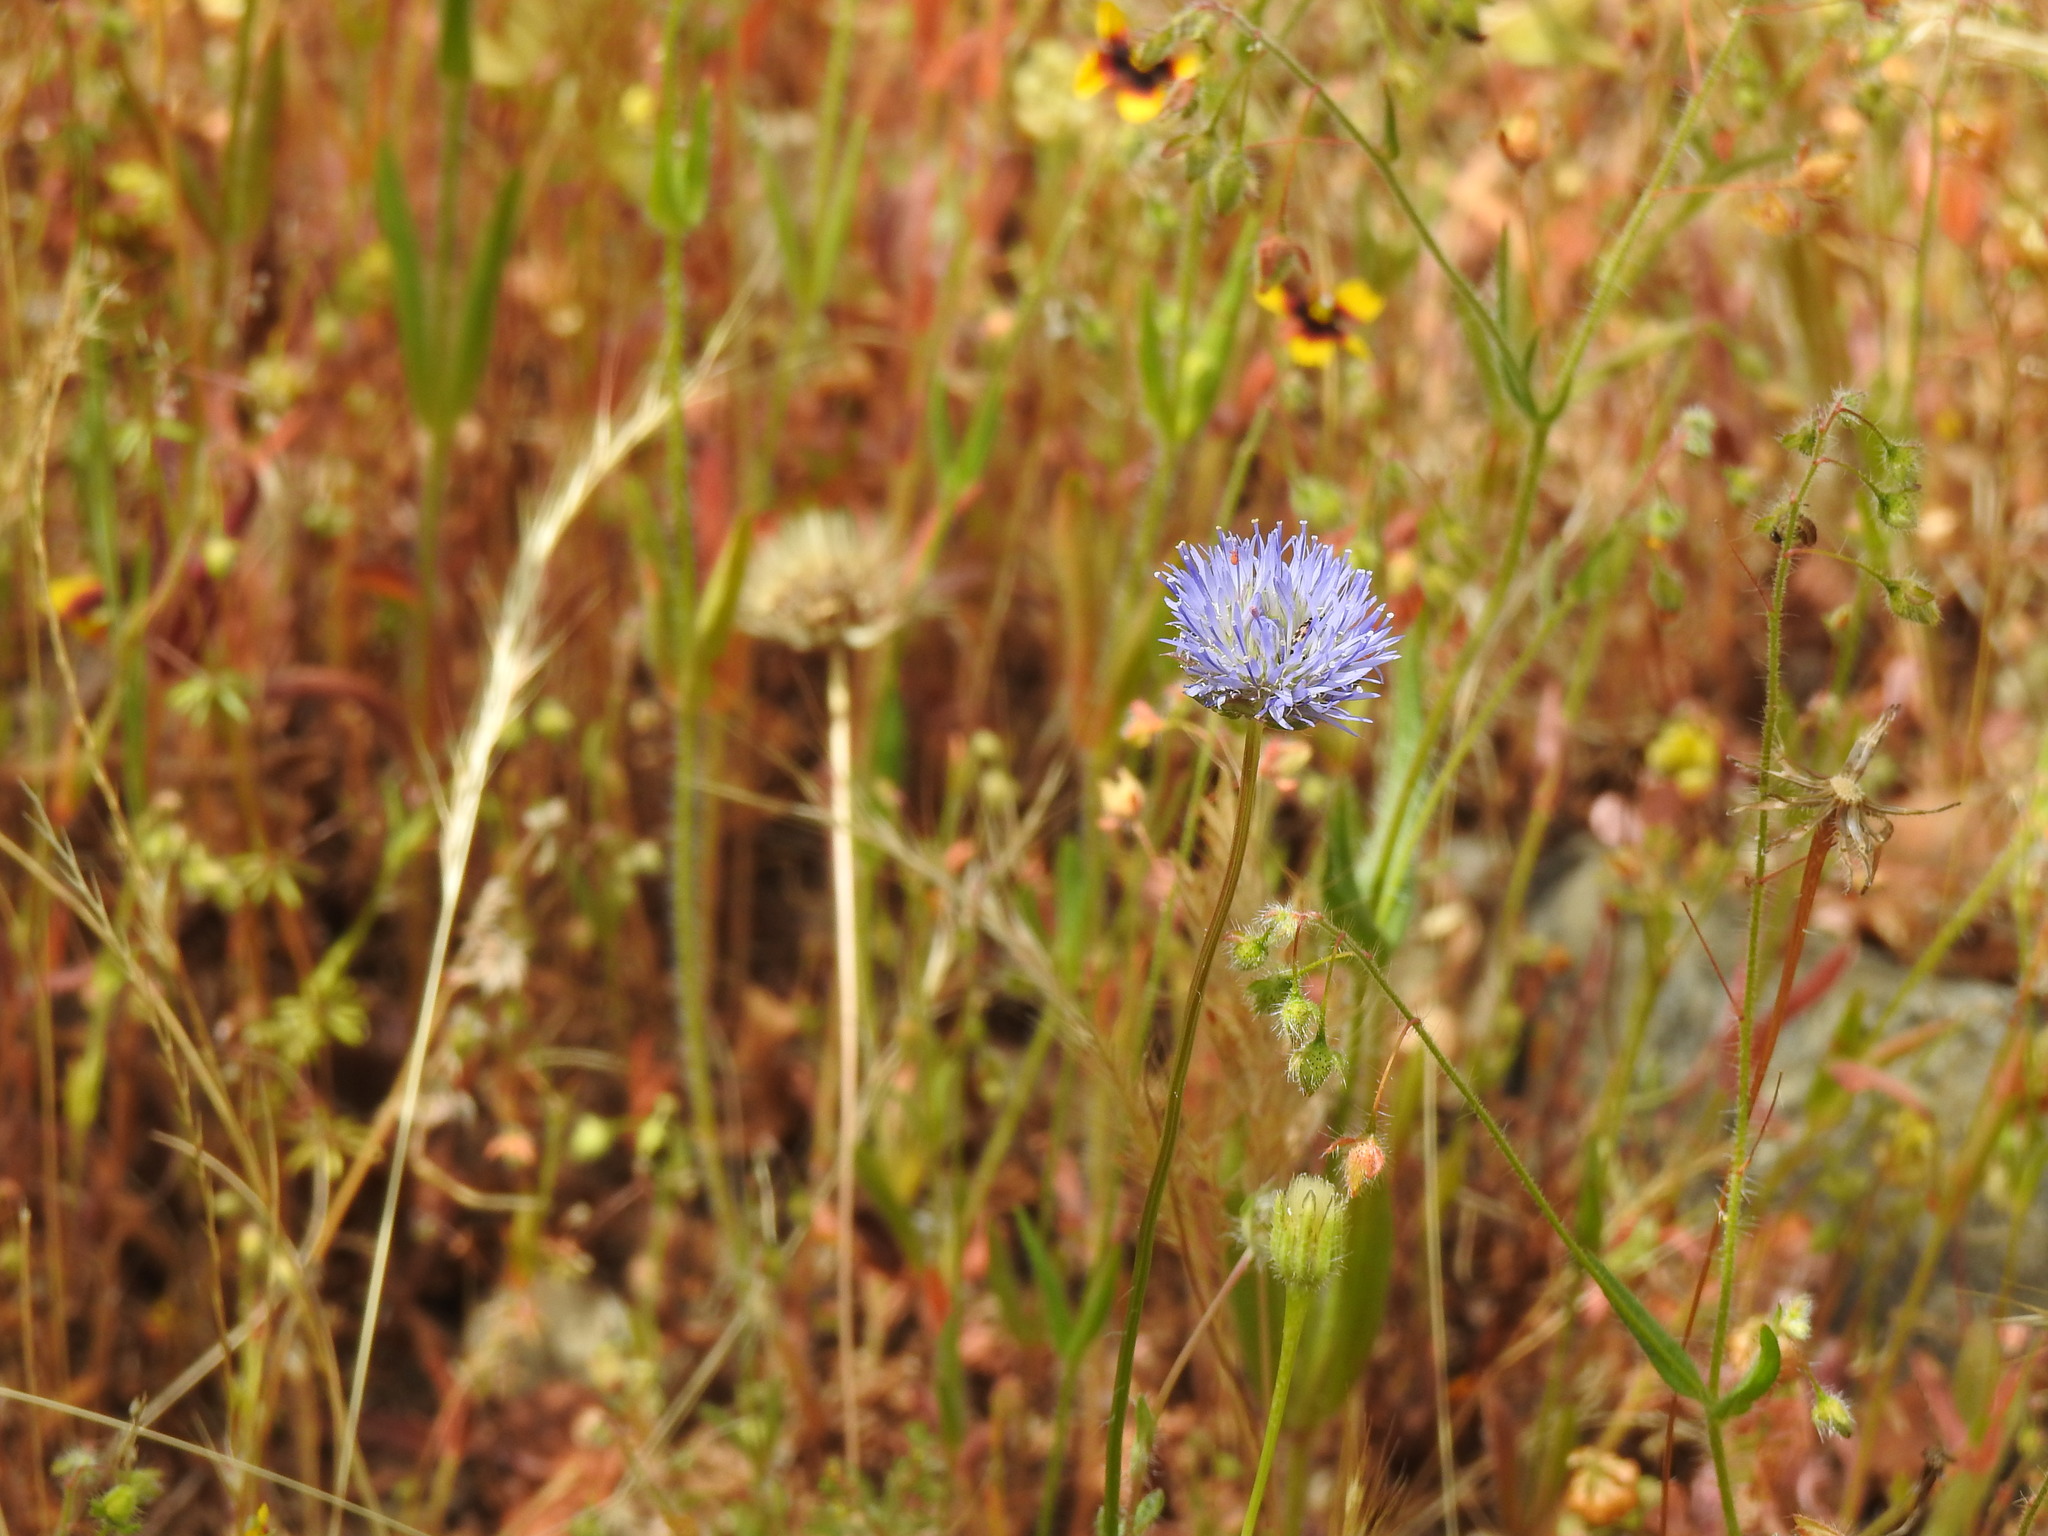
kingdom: Plantae
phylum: Tracheophyta
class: Magnoliopsida
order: Asterales
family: Campanulaceae
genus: Jasione
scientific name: Jasione montana
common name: Sheep's-bit
